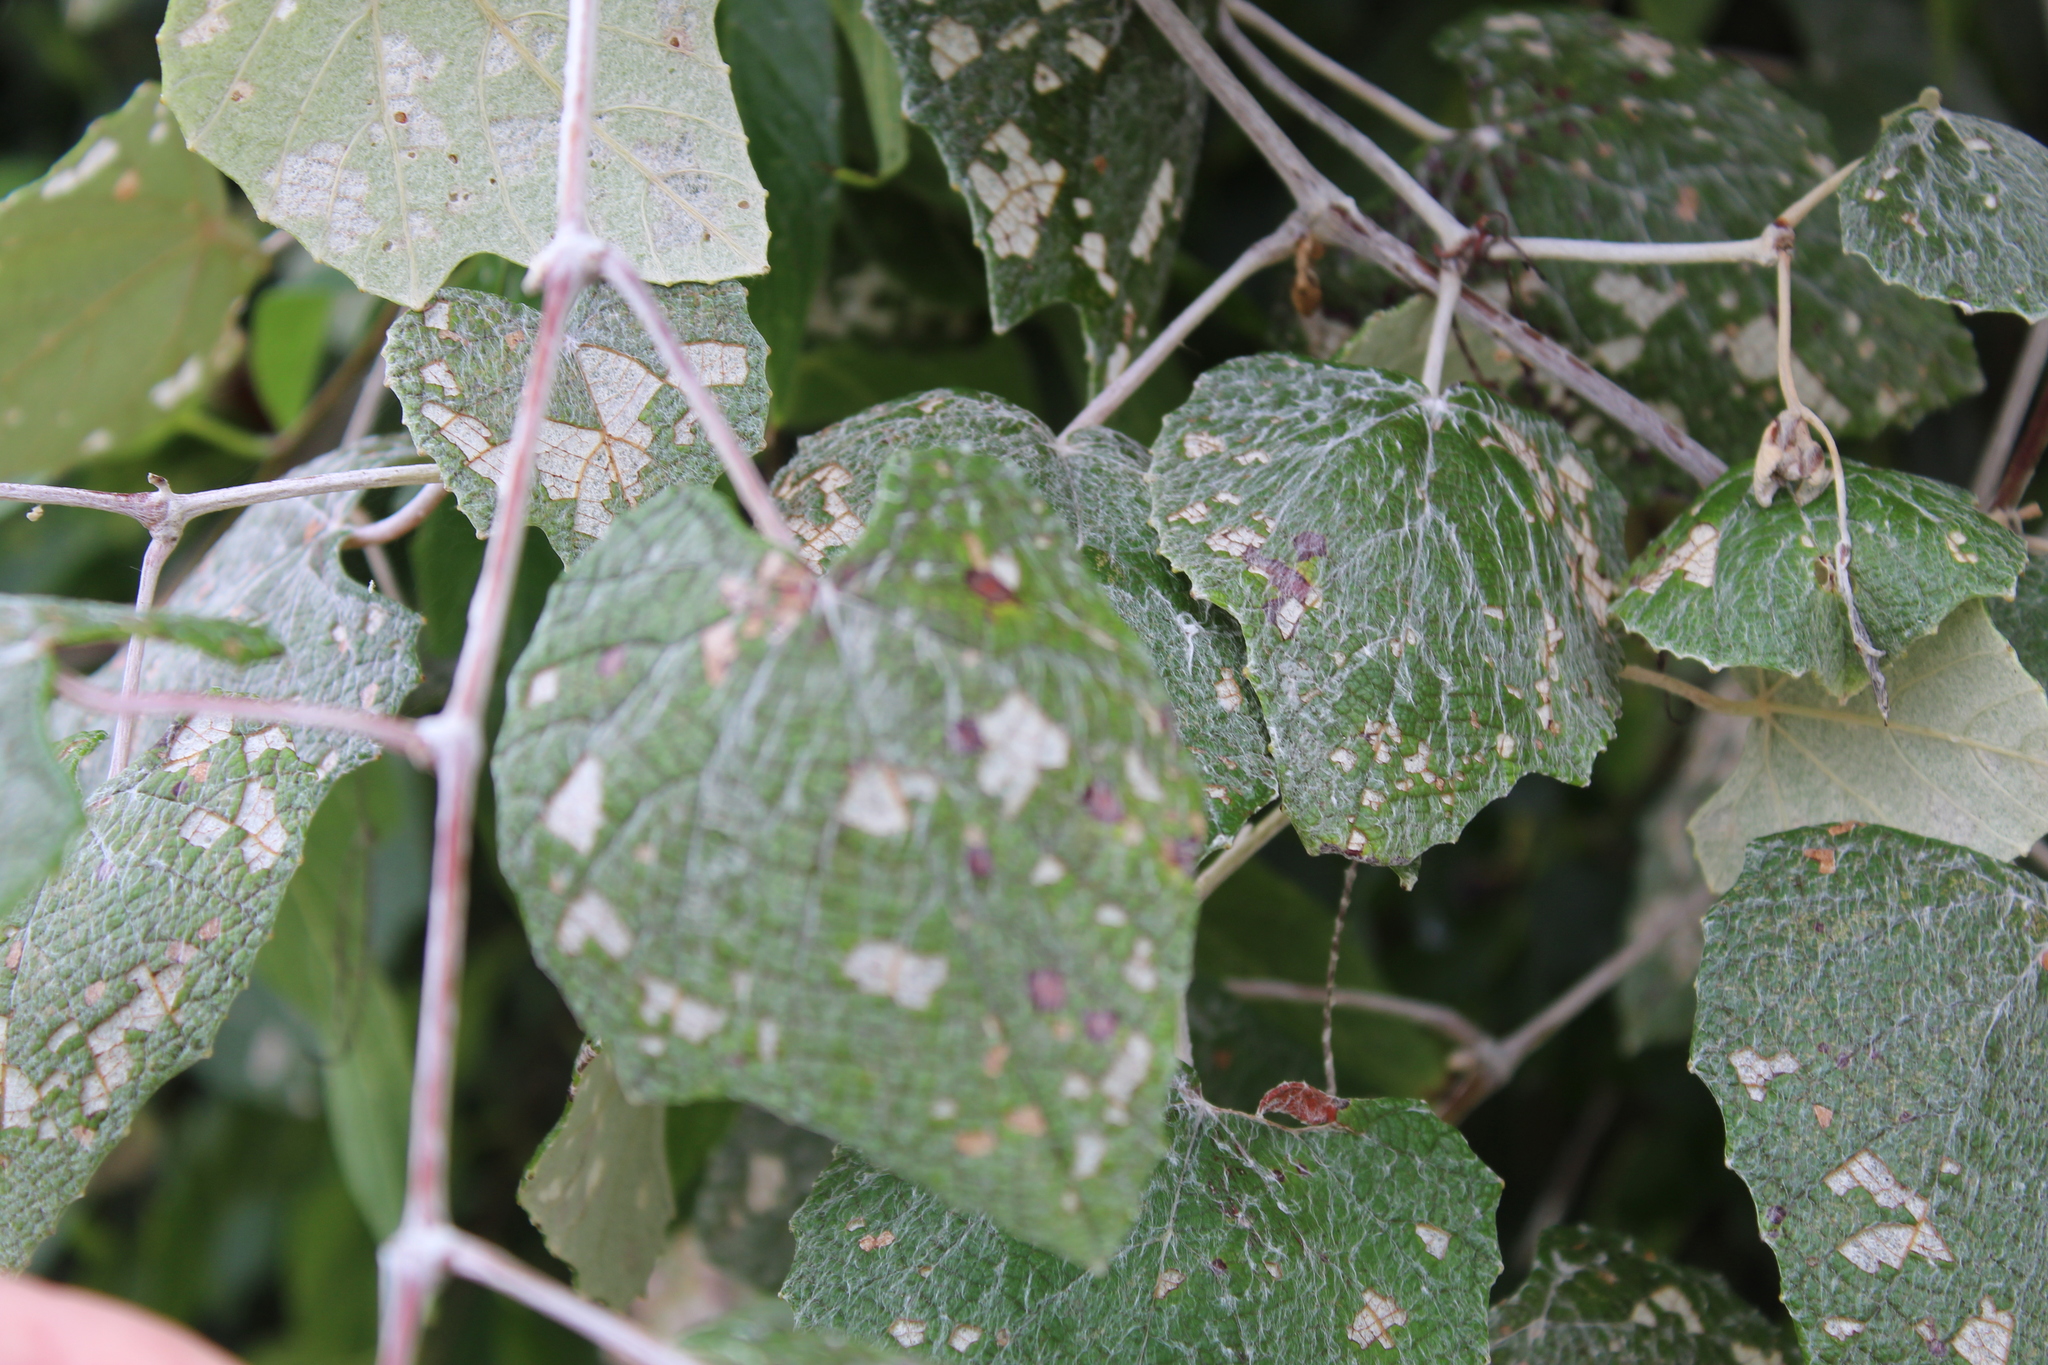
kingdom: Plantae
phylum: Tracheophyta
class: Magnoliopsida
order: Vitales
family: Vitaceae
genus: Vitis
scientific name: Vitis mustangensis
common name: Mustang grape
